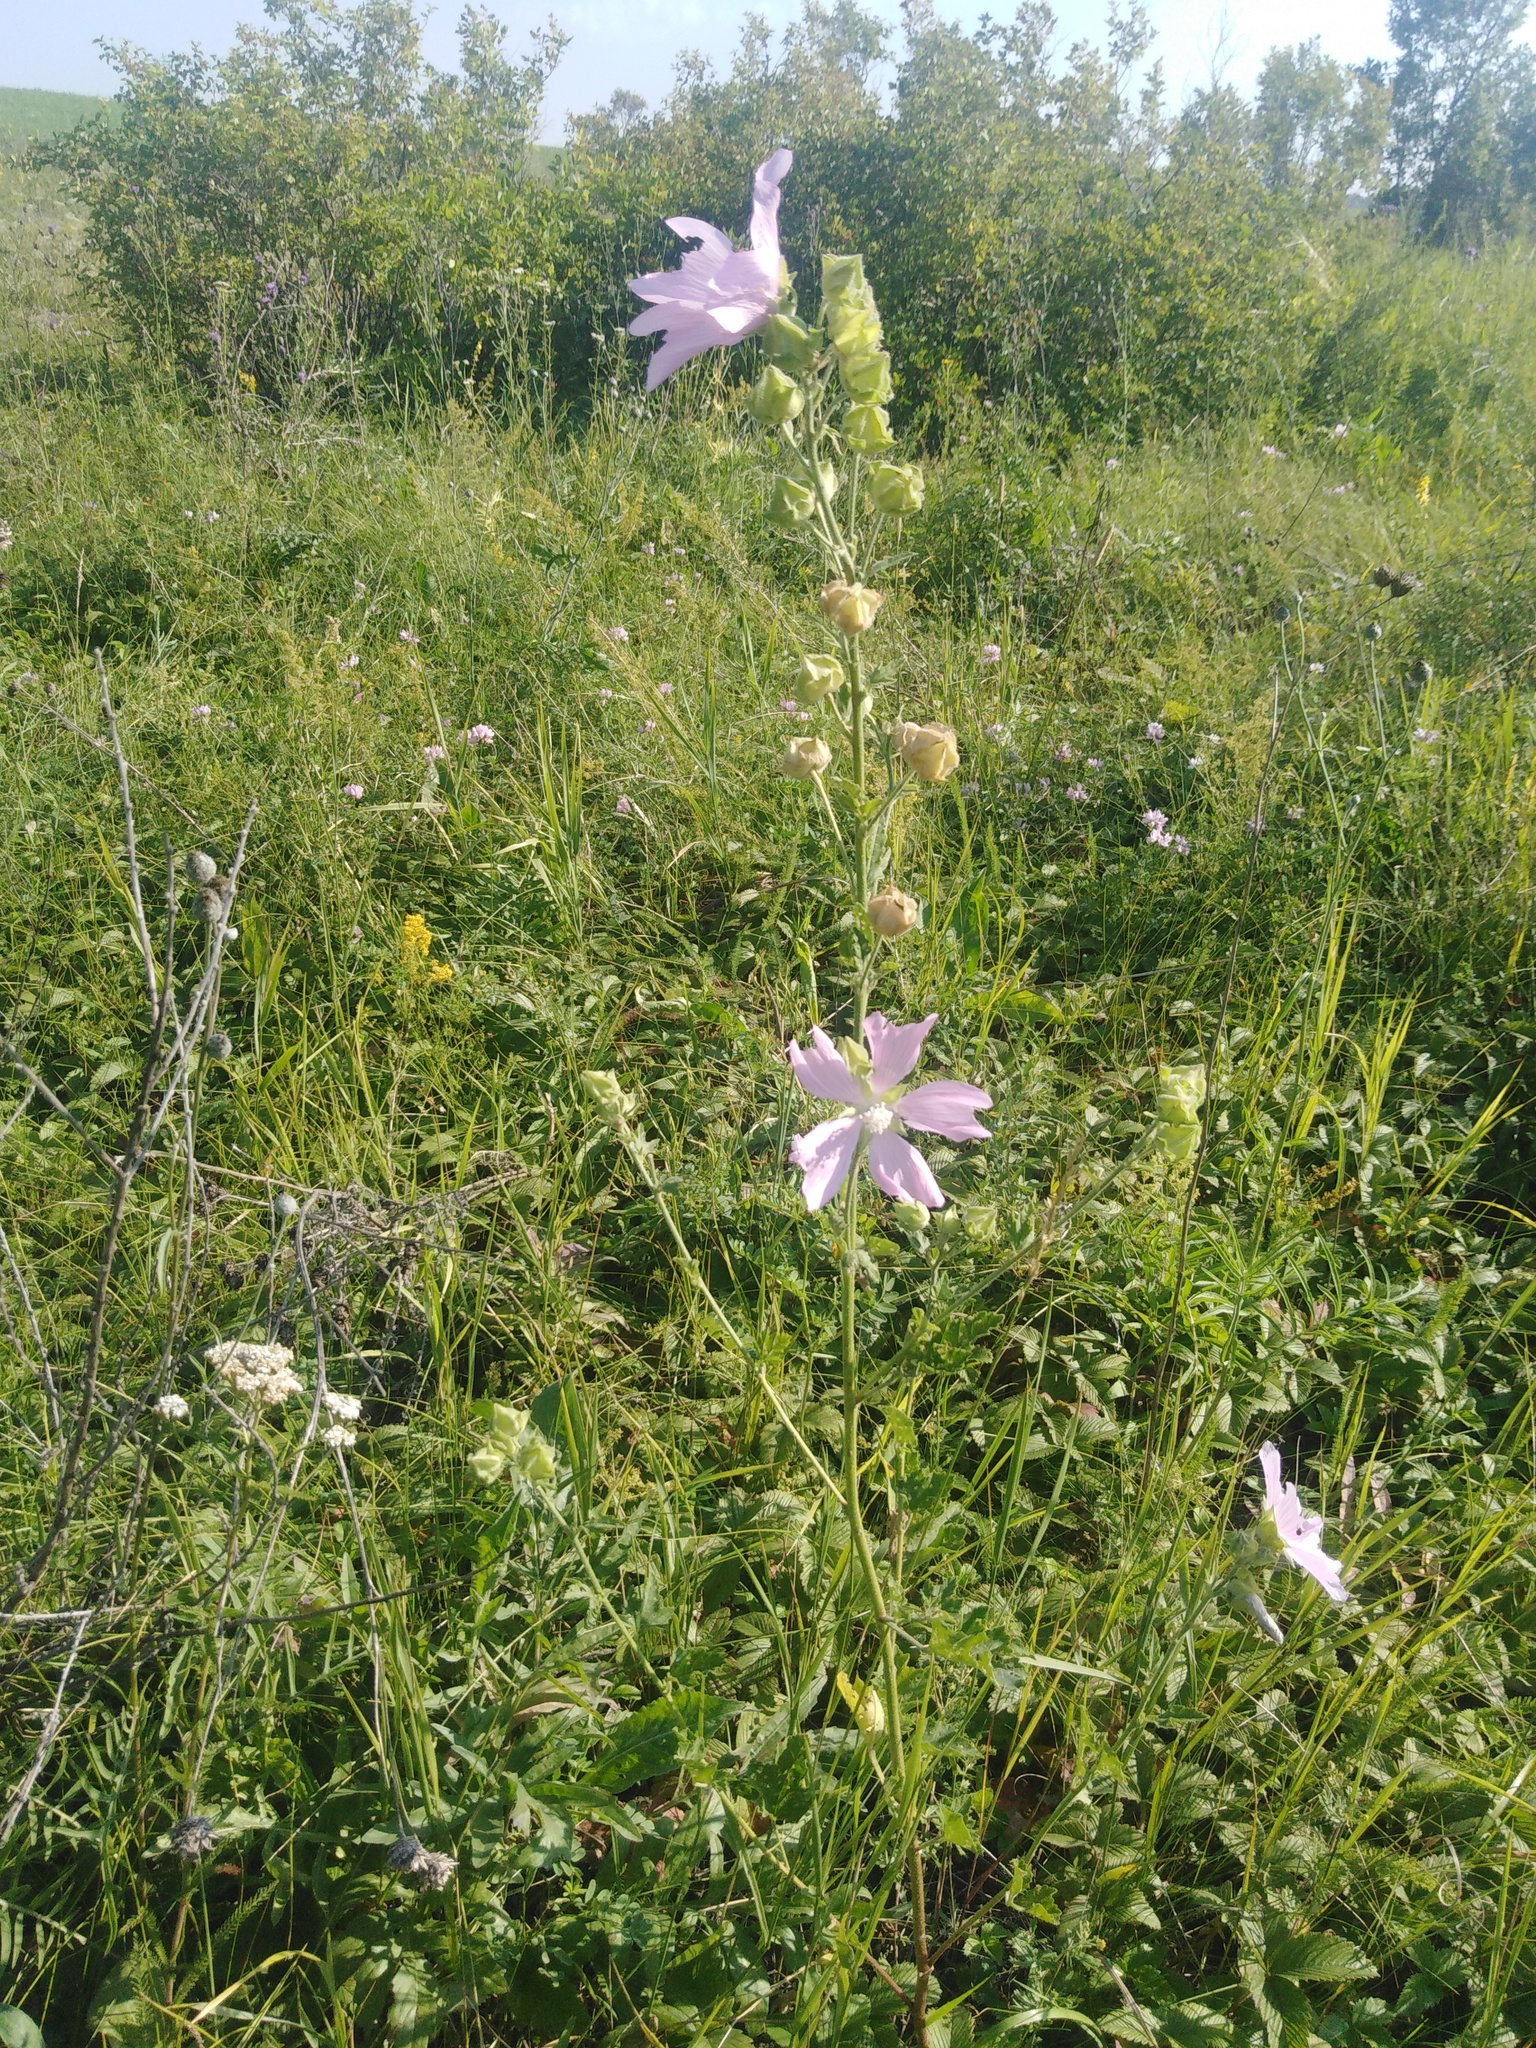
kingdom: Plantae
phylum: Tracheophyta
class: Magnoliopsida
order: Malvales
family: Malvaceae
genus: Malva
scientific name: Malva thuringiaca
